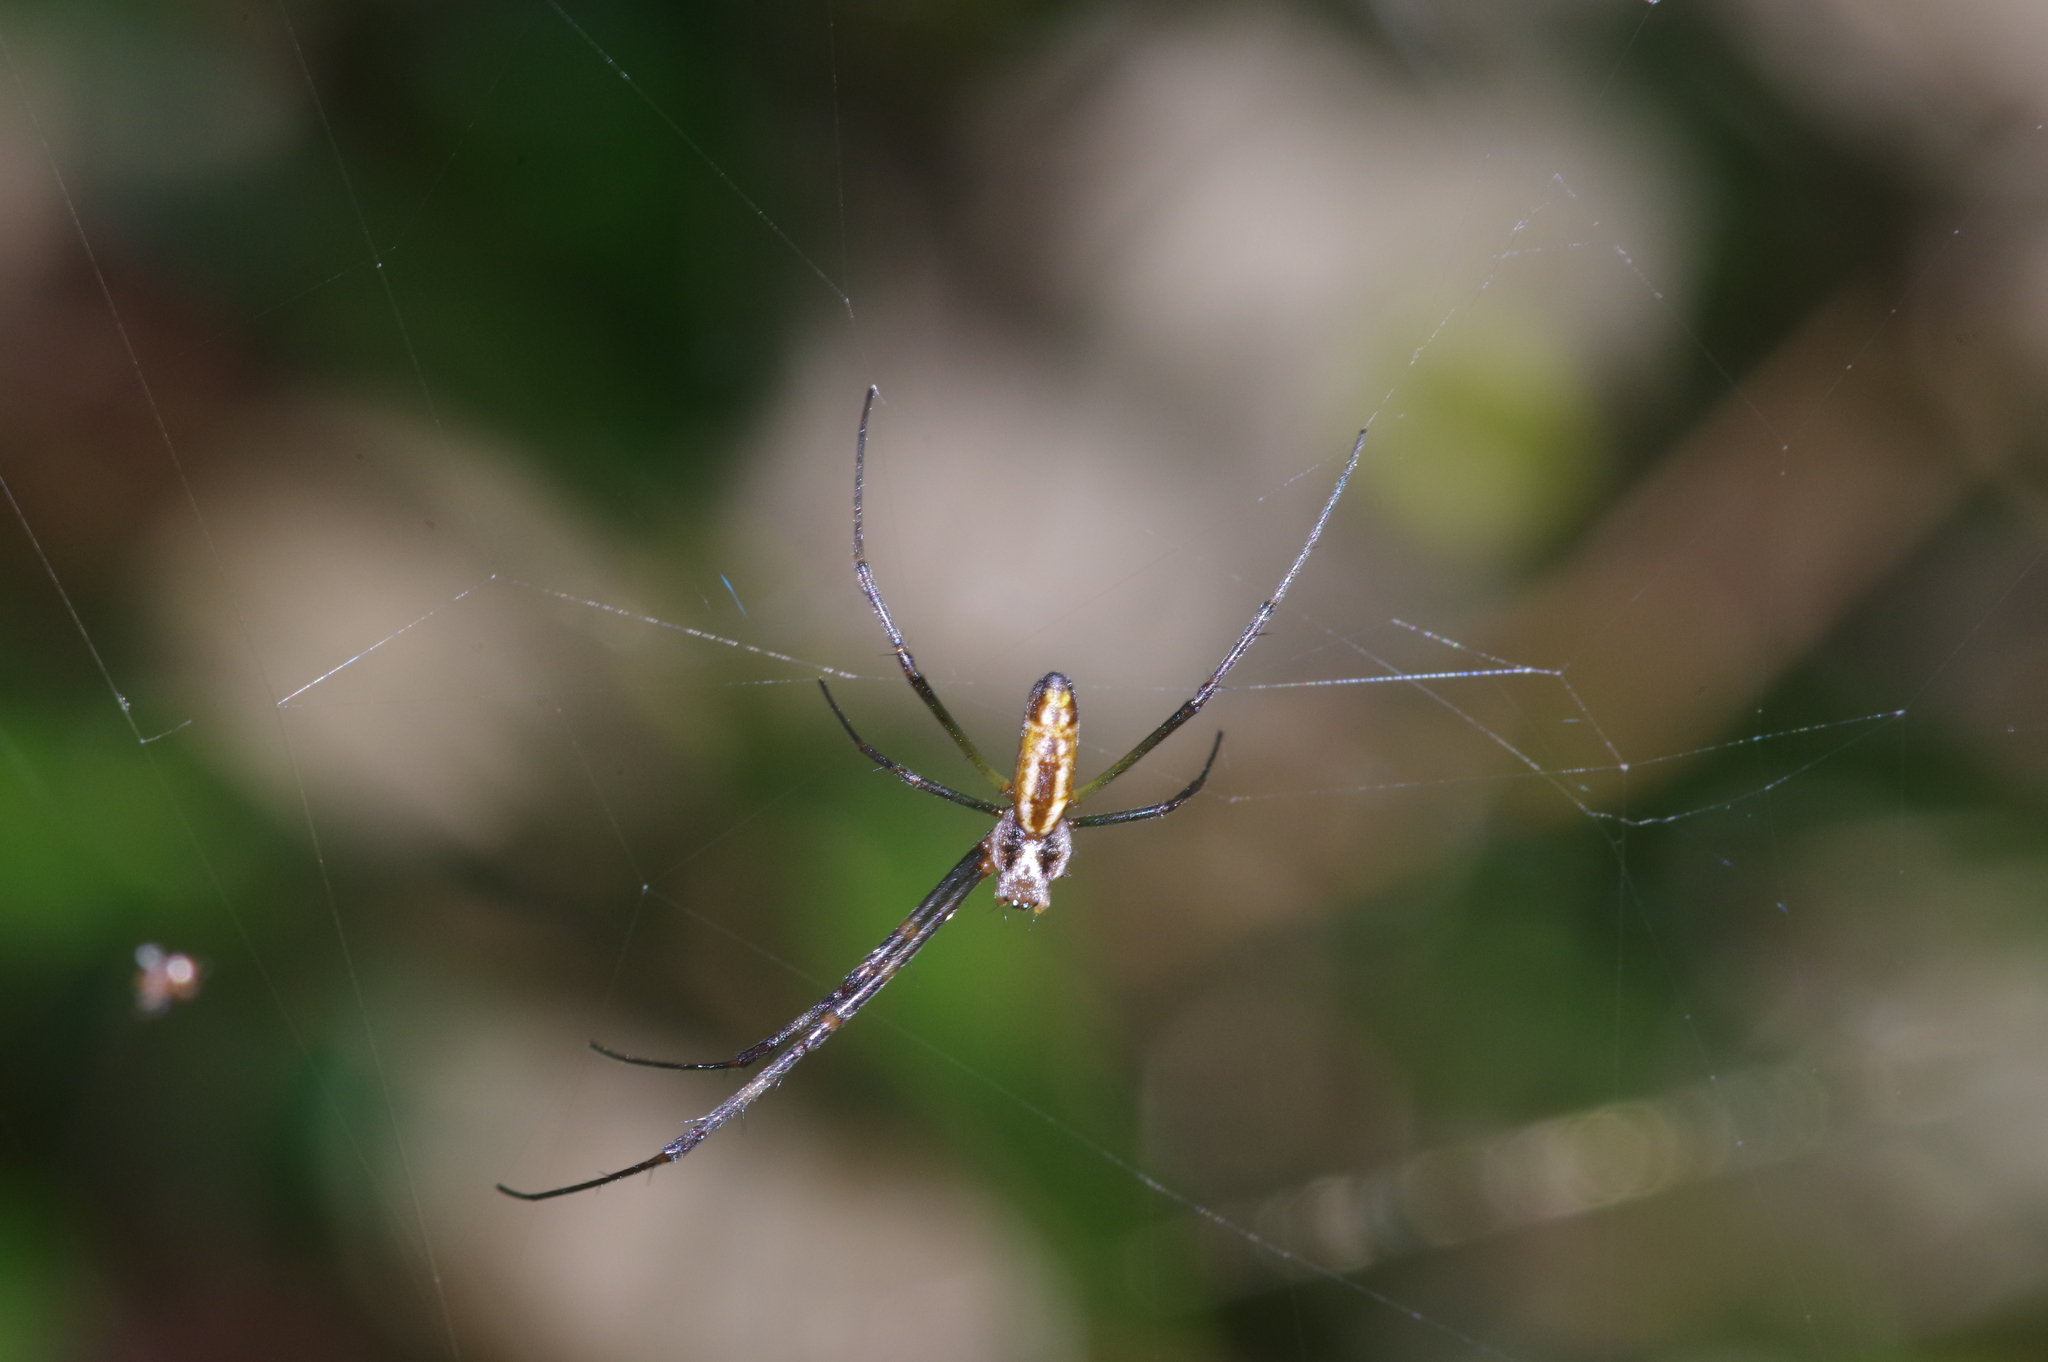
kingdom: Animalia
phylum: Arthropoda
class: Arachnida
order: Araneae
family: Araneidae
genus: Nephila
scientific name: Nephila pilipes
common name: Giant golden orb weaver
